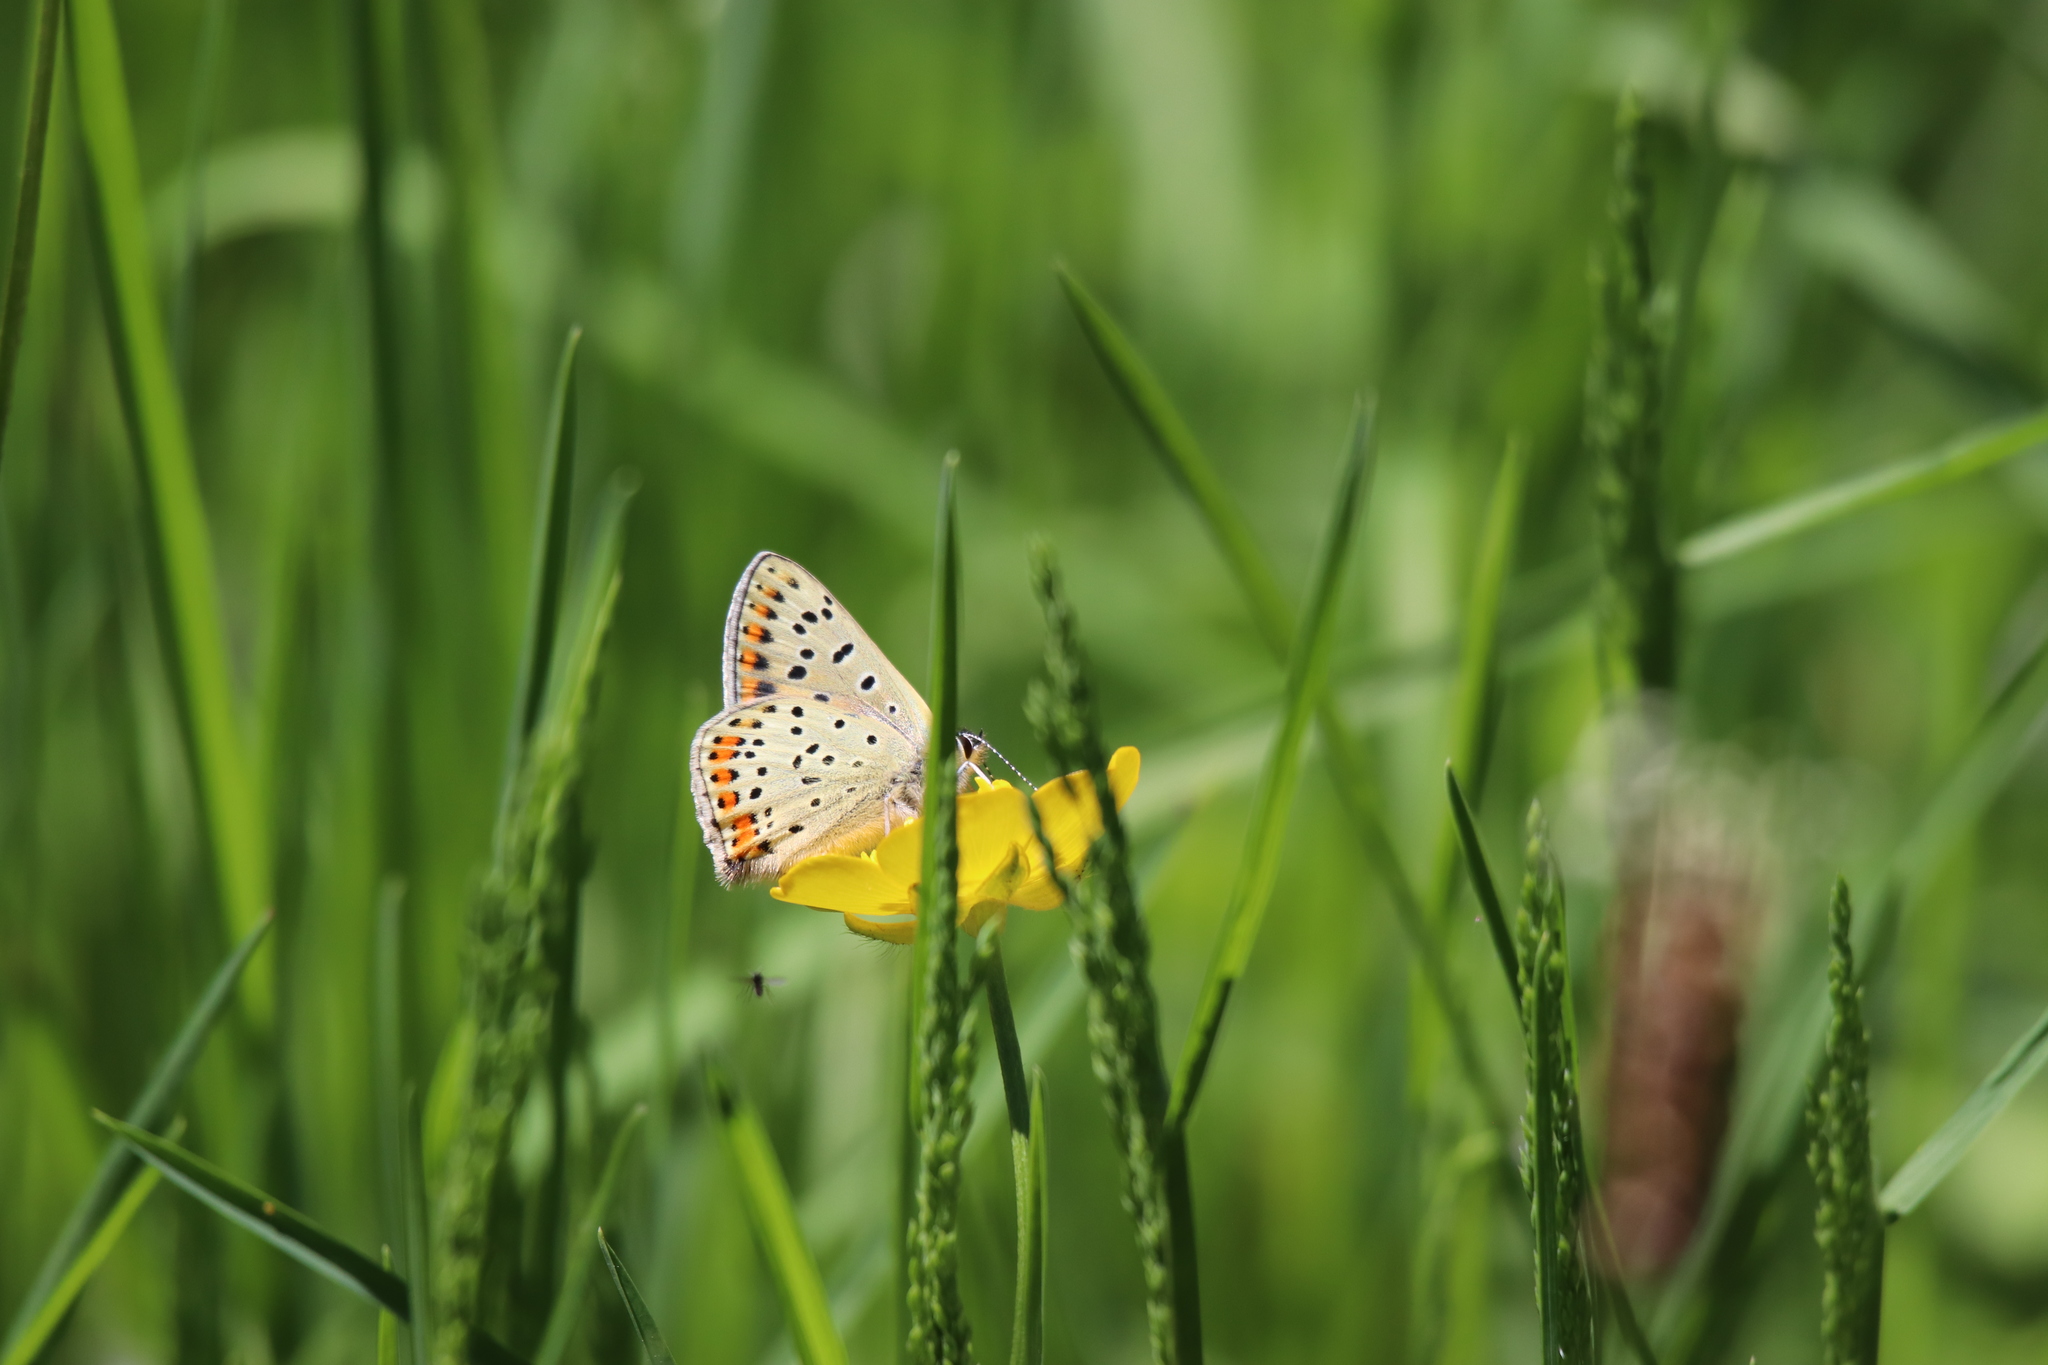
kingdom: Animalia
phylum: Arthropoda
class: Insecta
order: Lepidoptera
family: Lycaenidae
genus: Loweia
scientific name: Loweia tityrus
